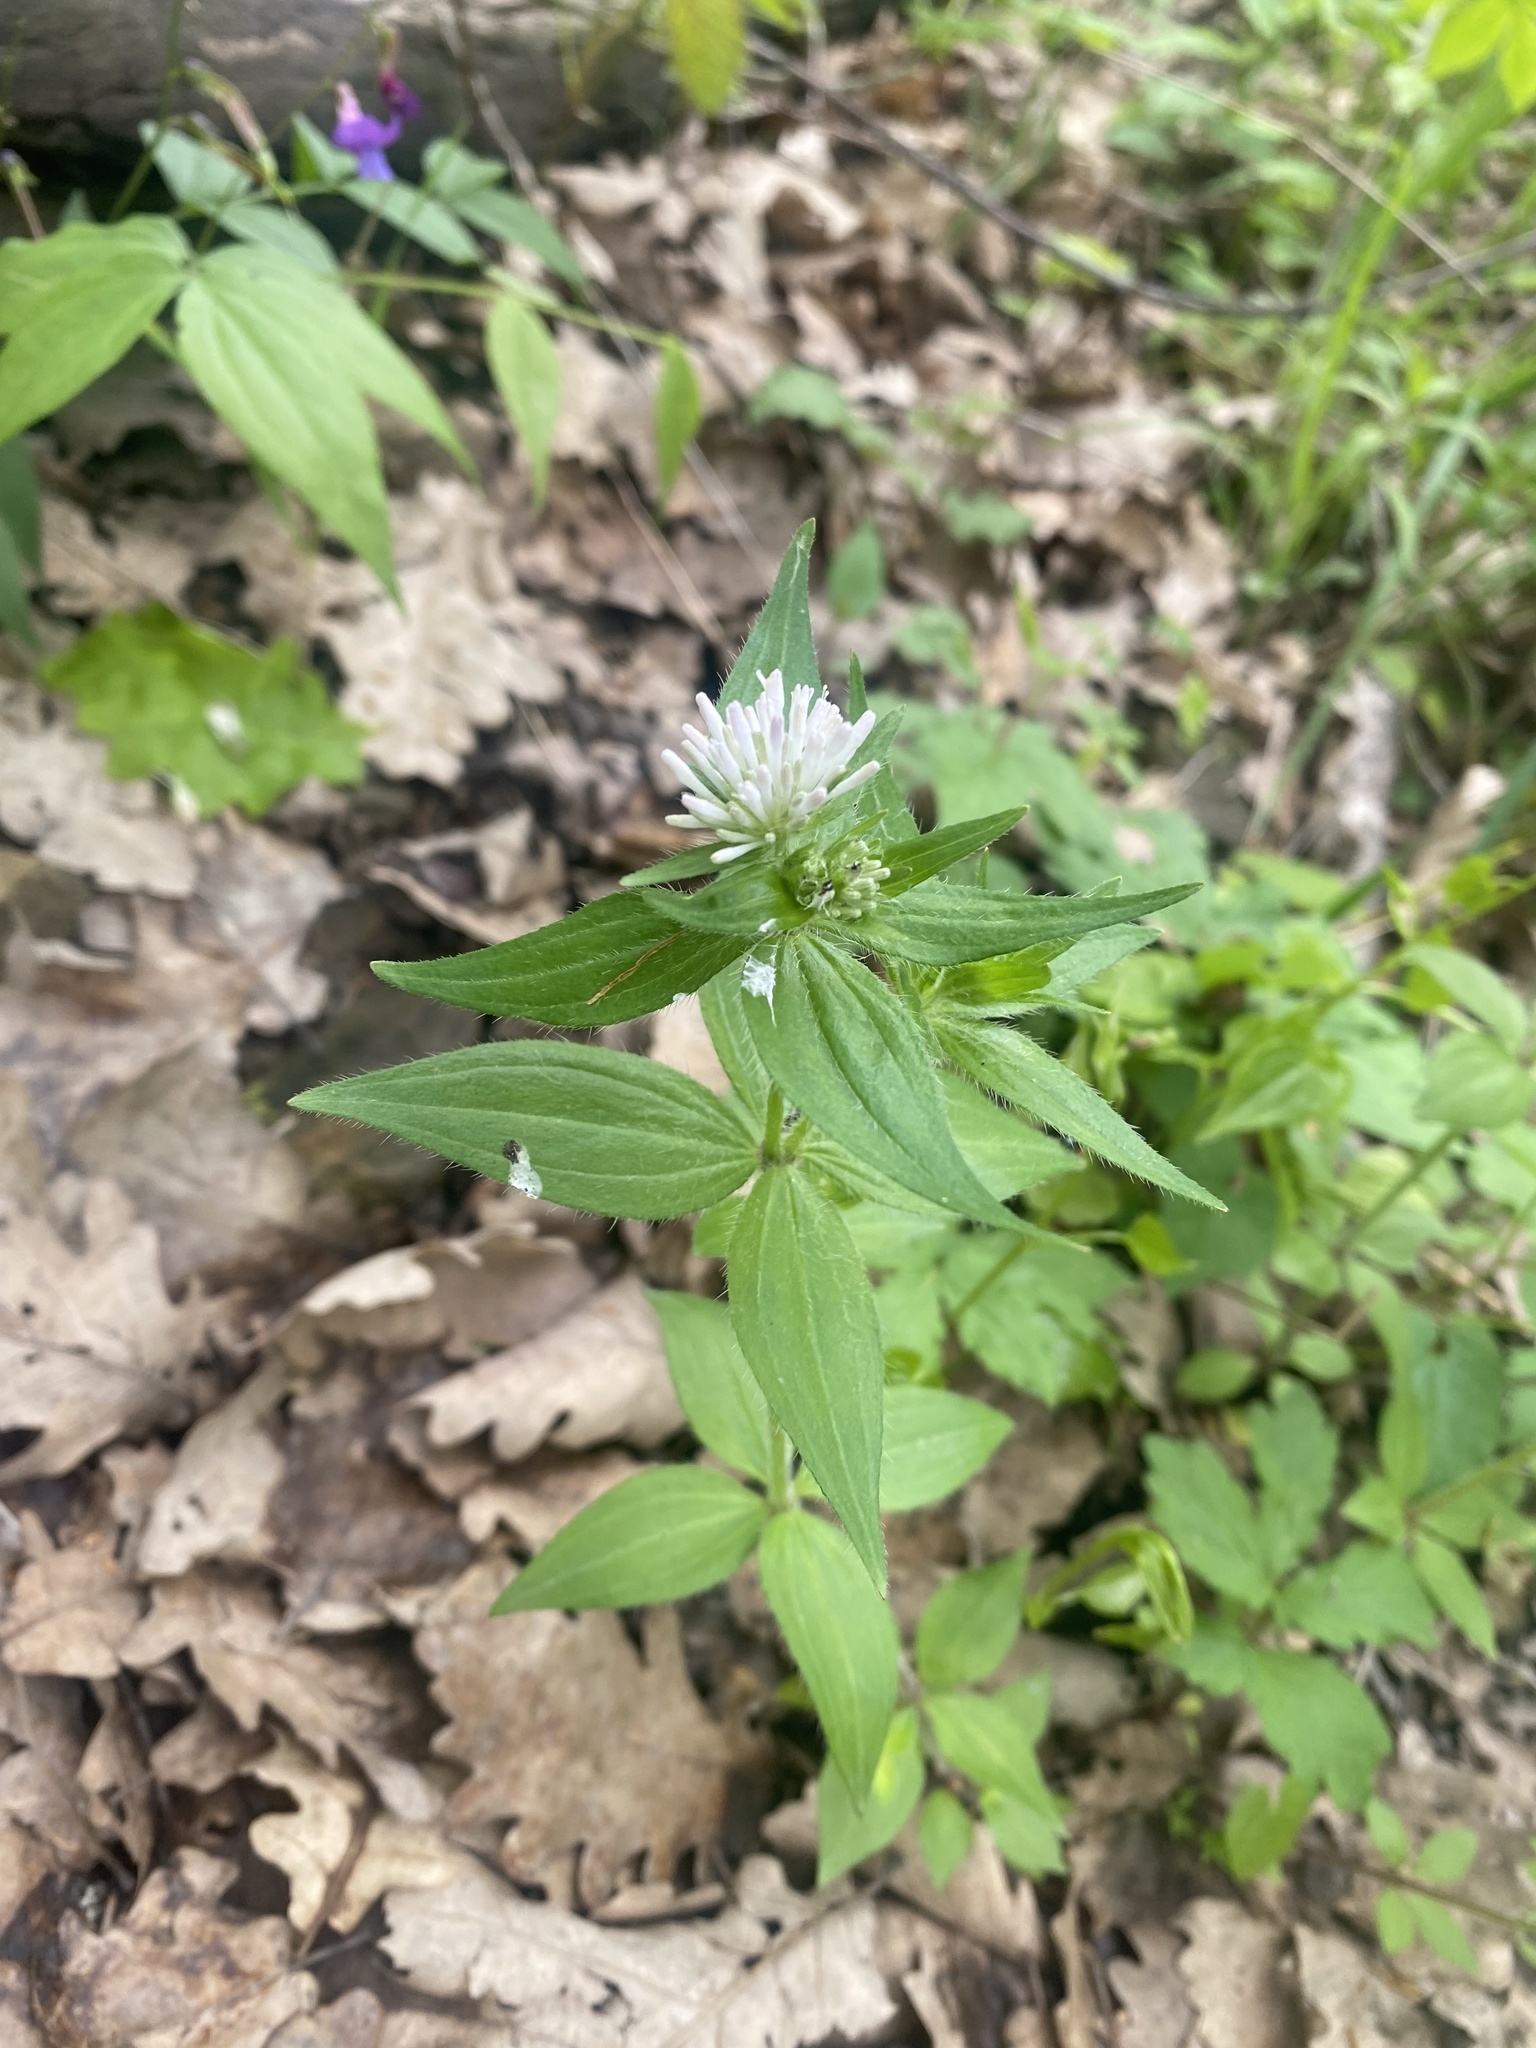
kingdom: Plantae
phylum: Tracheophyta
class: Magnoliopsida
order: Gentianales
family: Rubiaceae
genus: Asperula
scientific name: Asperula taurina
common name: Pink woodruff
